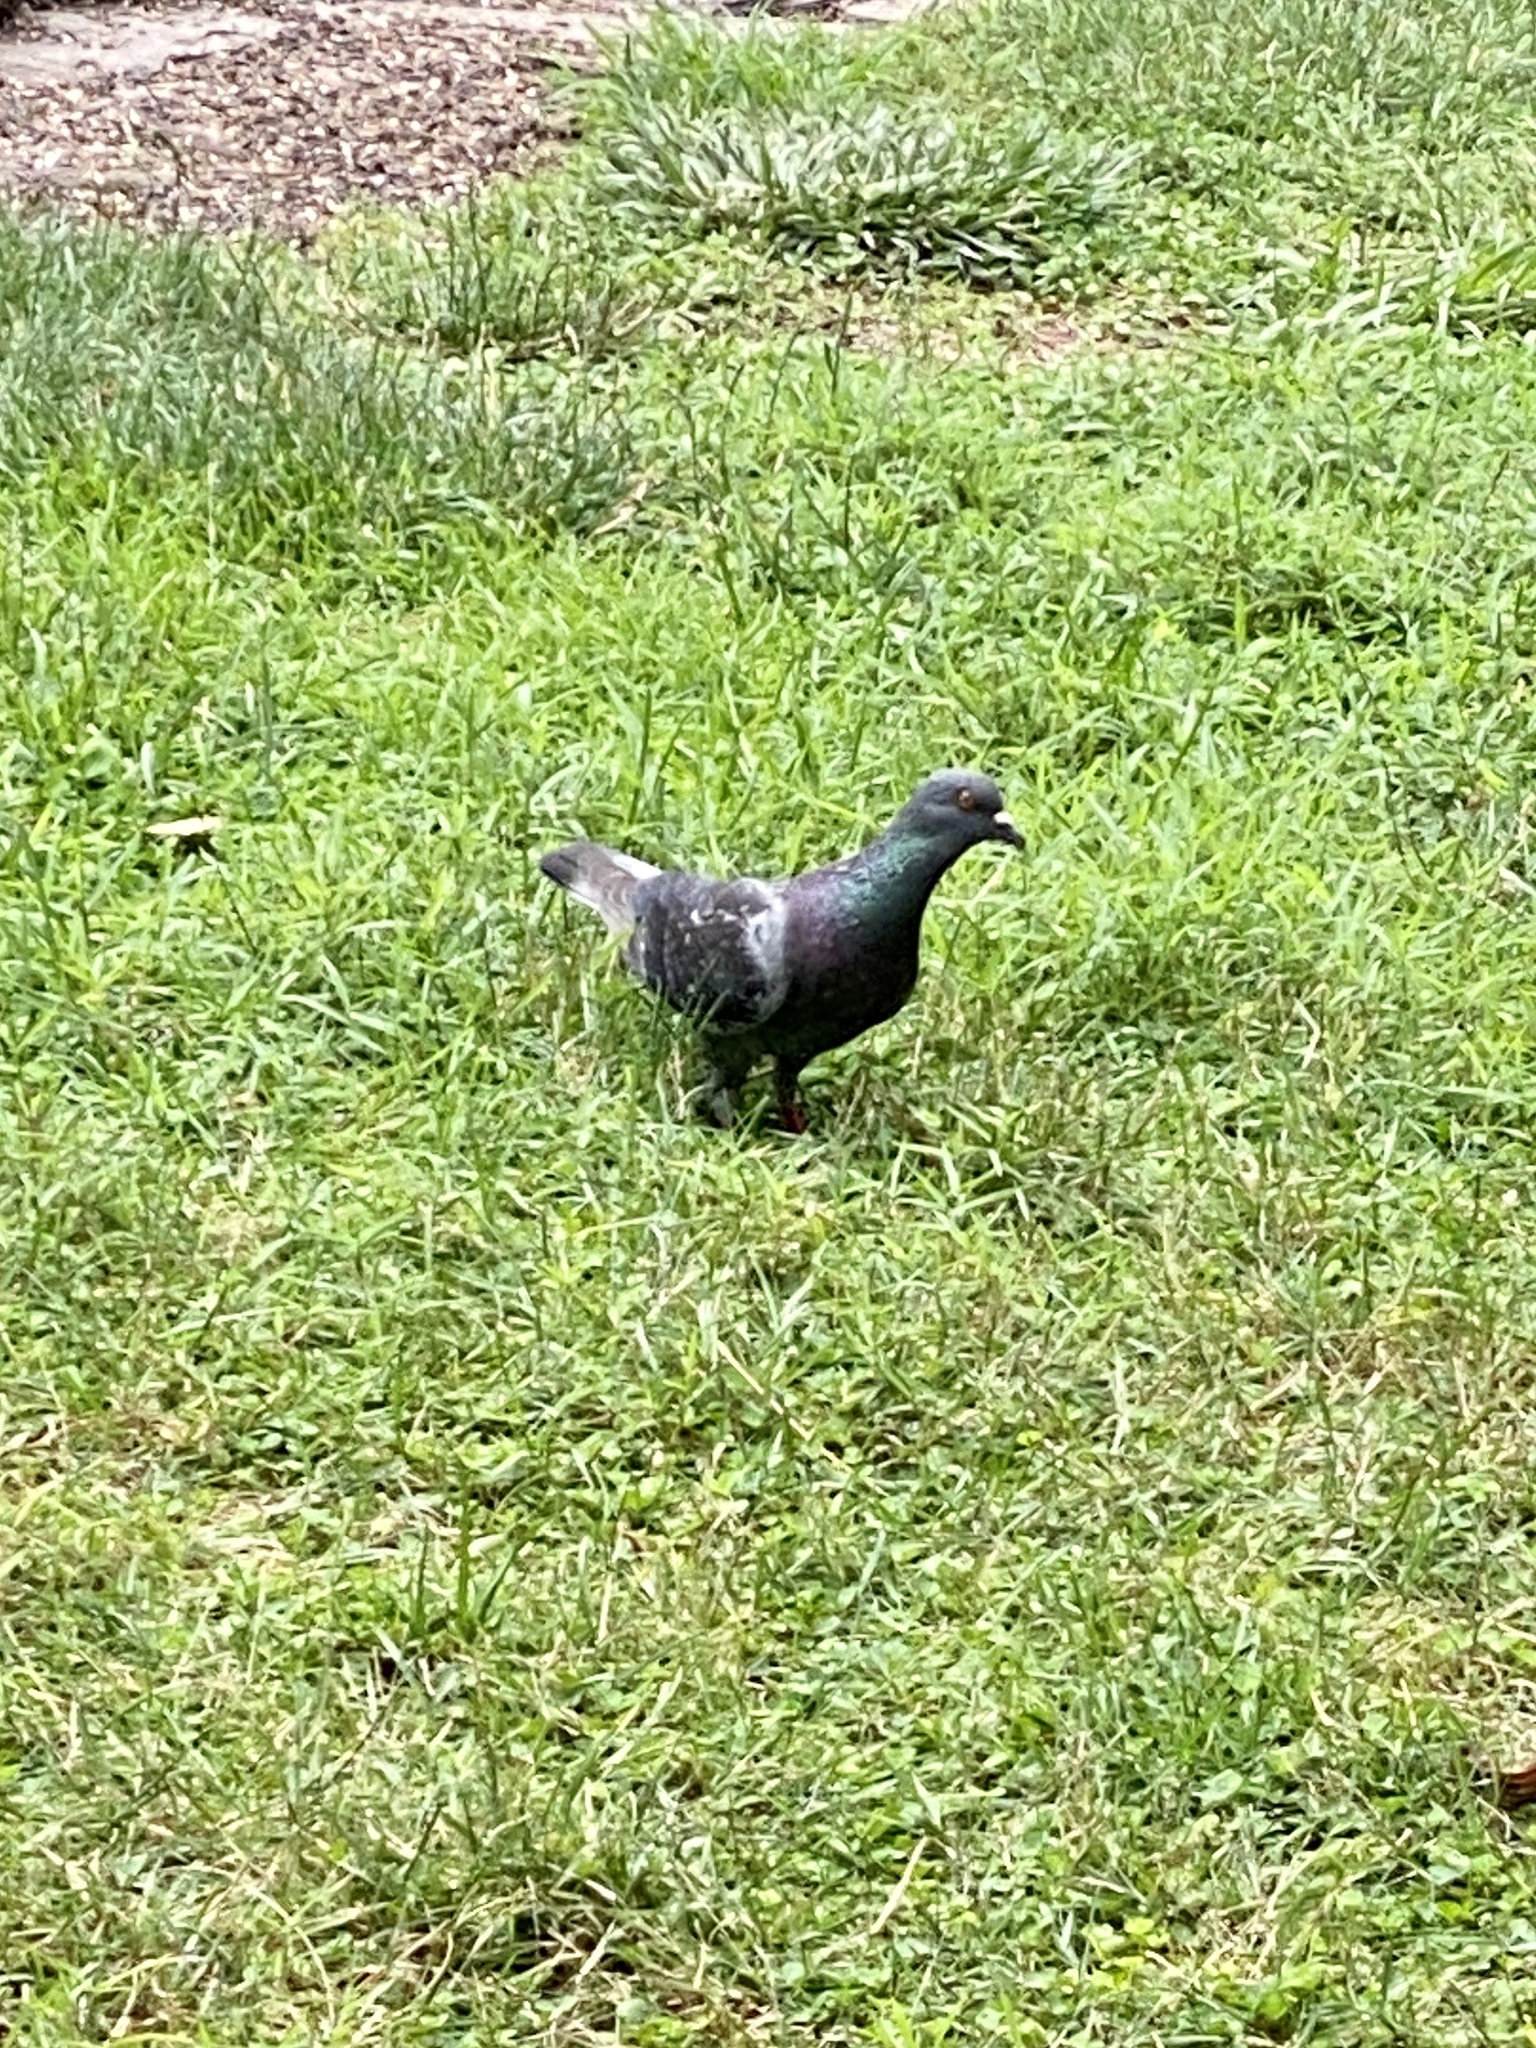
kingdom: Animalia
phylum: Chordata
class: Aves
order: Columbiformes
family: Columbidae
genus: Columba
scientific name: Columba livia
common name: Rock pigeon
